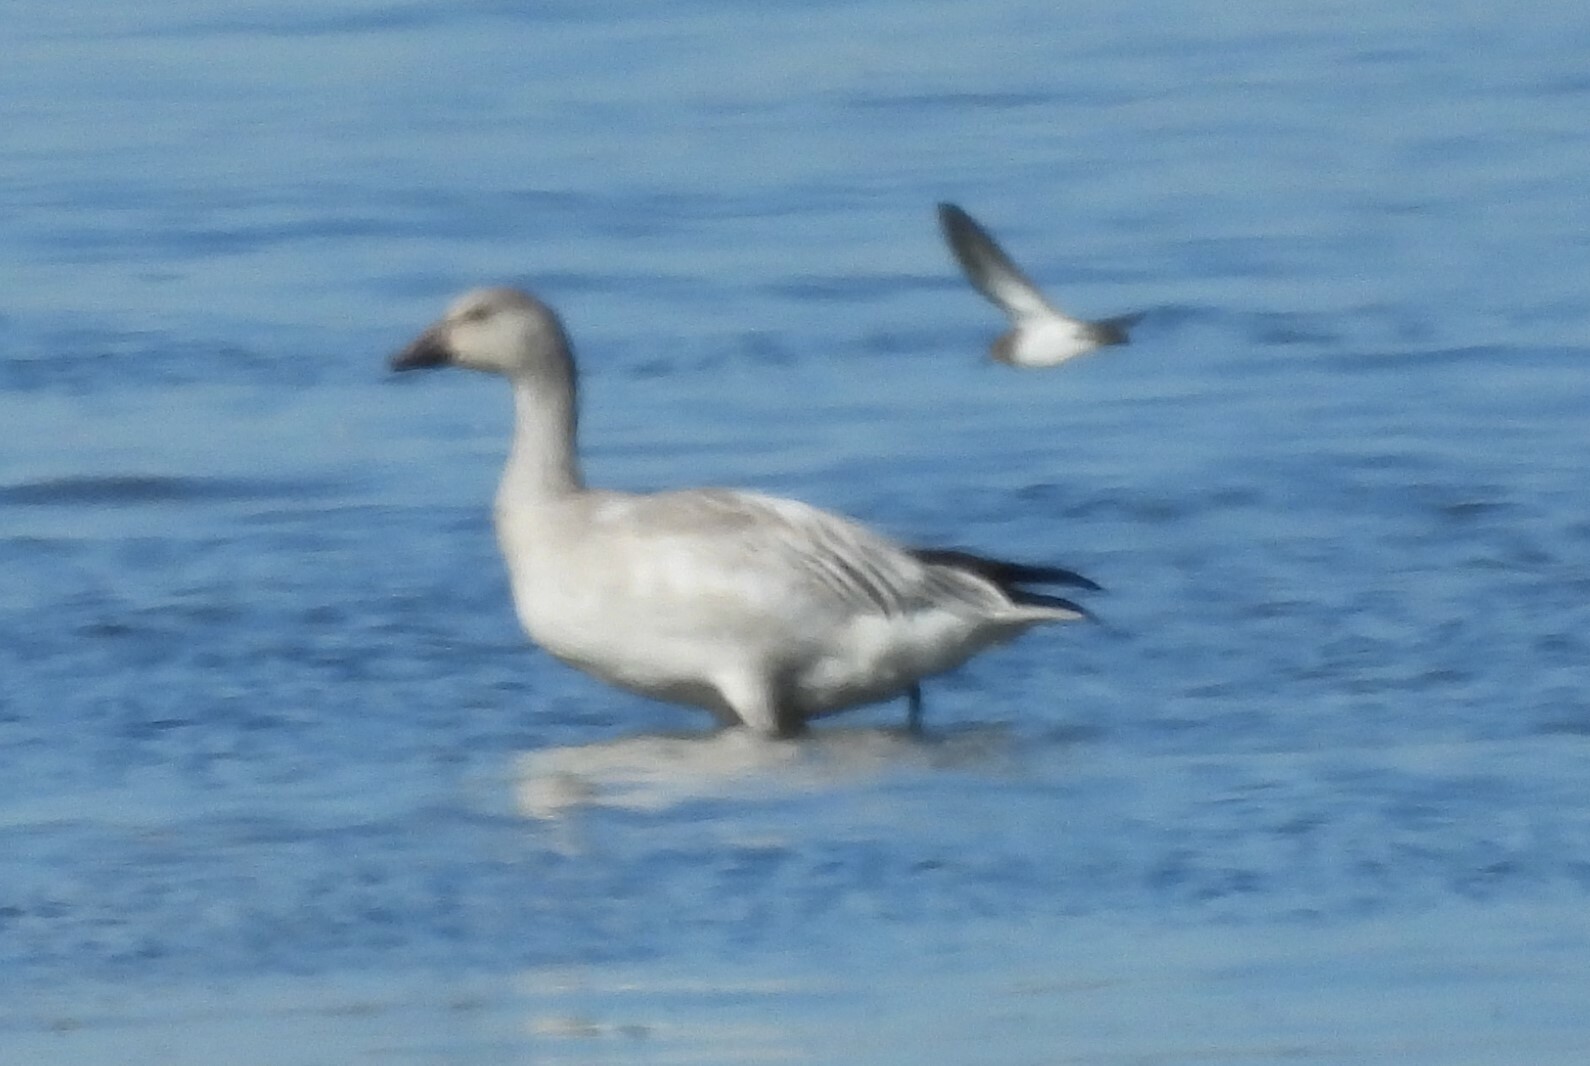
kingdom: Animalia
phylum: Chordata
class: Aves
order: Anseriformes
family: Anatidae
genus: Anser
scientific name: Anser caerulescens
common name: Snow goose
